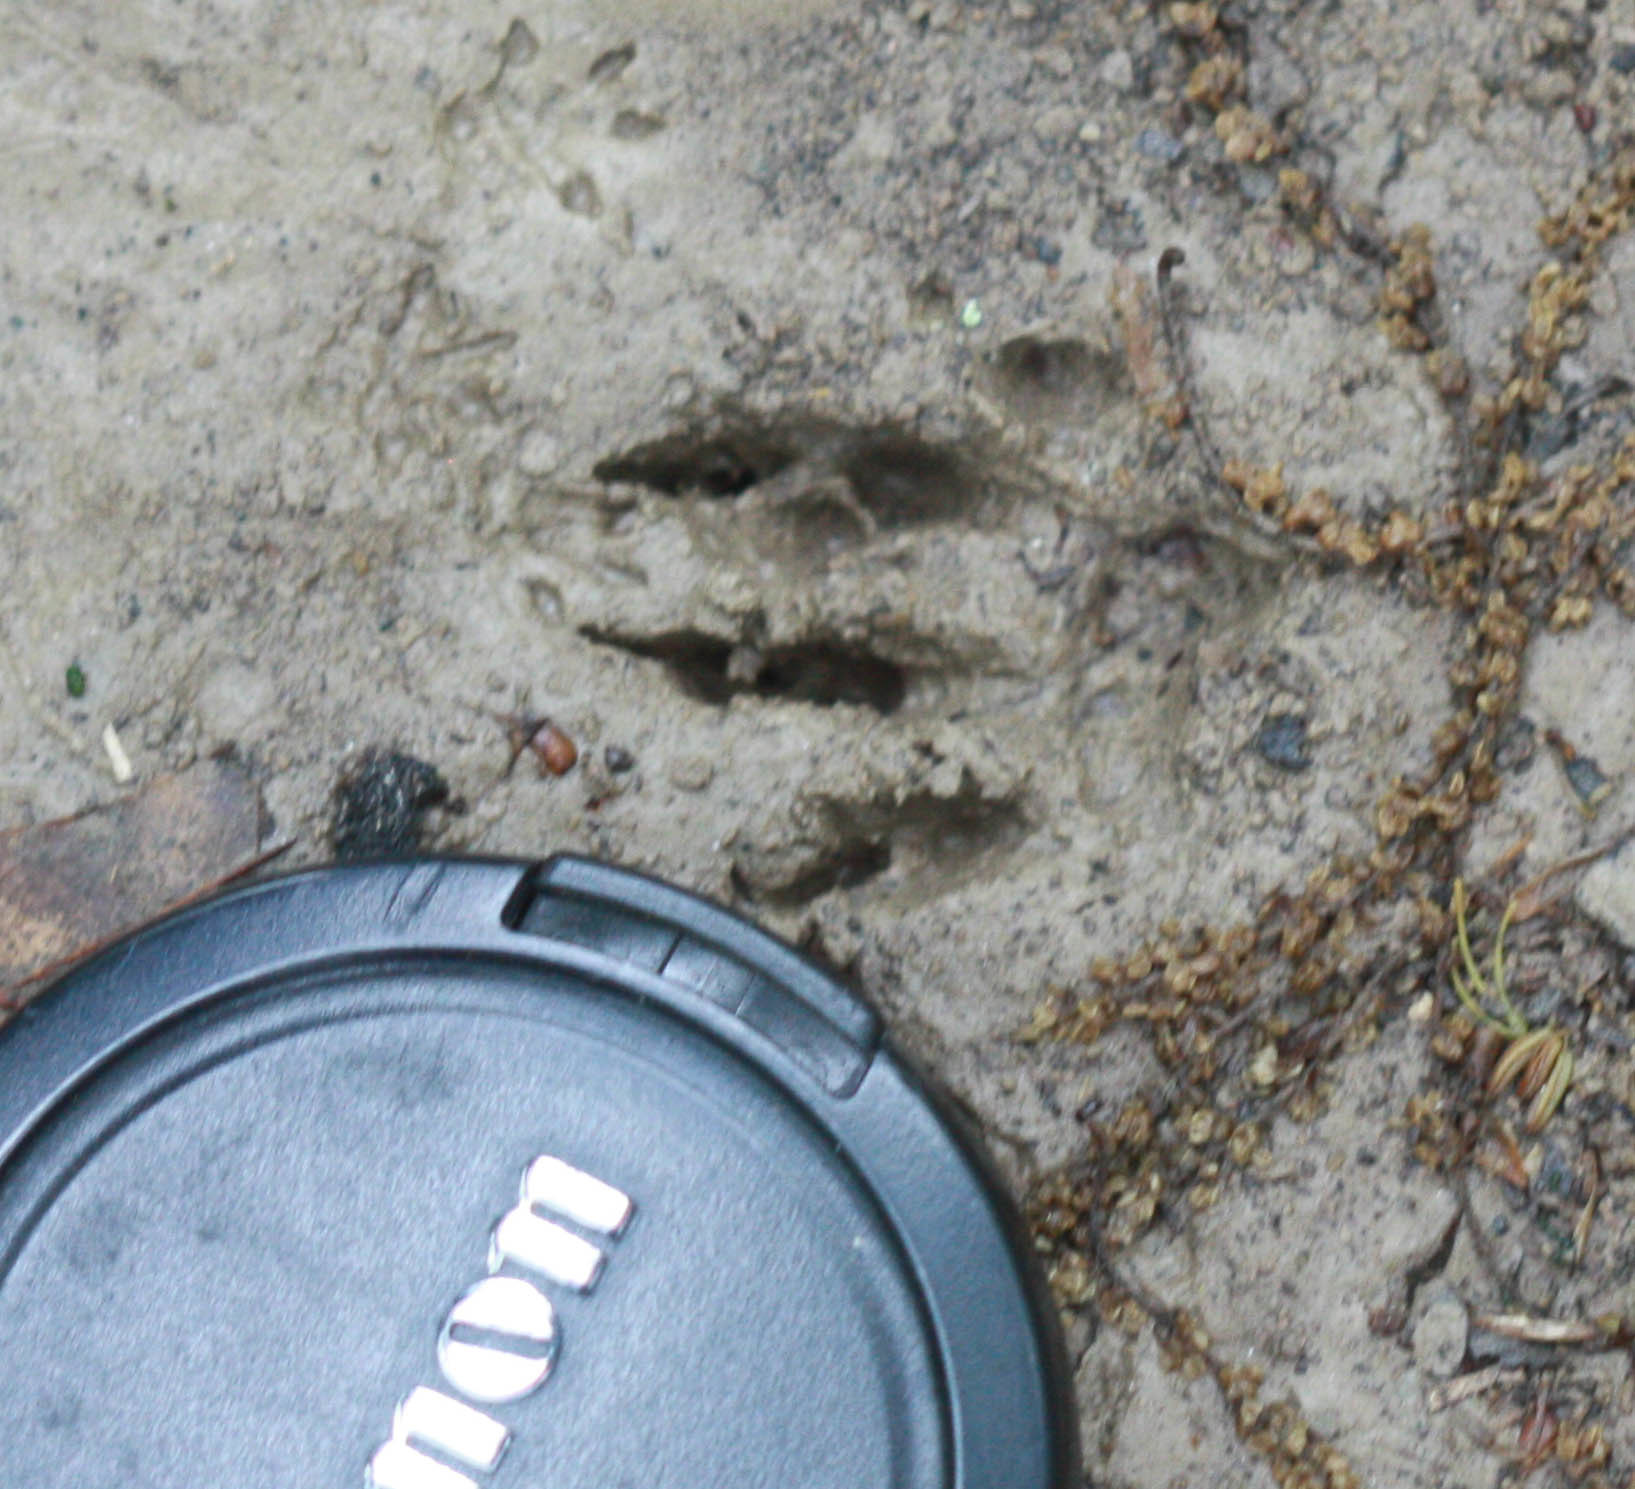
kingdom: Animalia
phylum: Chordata
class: Mammalia
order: Carnivora
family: Procyonidae
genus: Procyon
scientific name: Procyon lotor
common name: Raccoon
